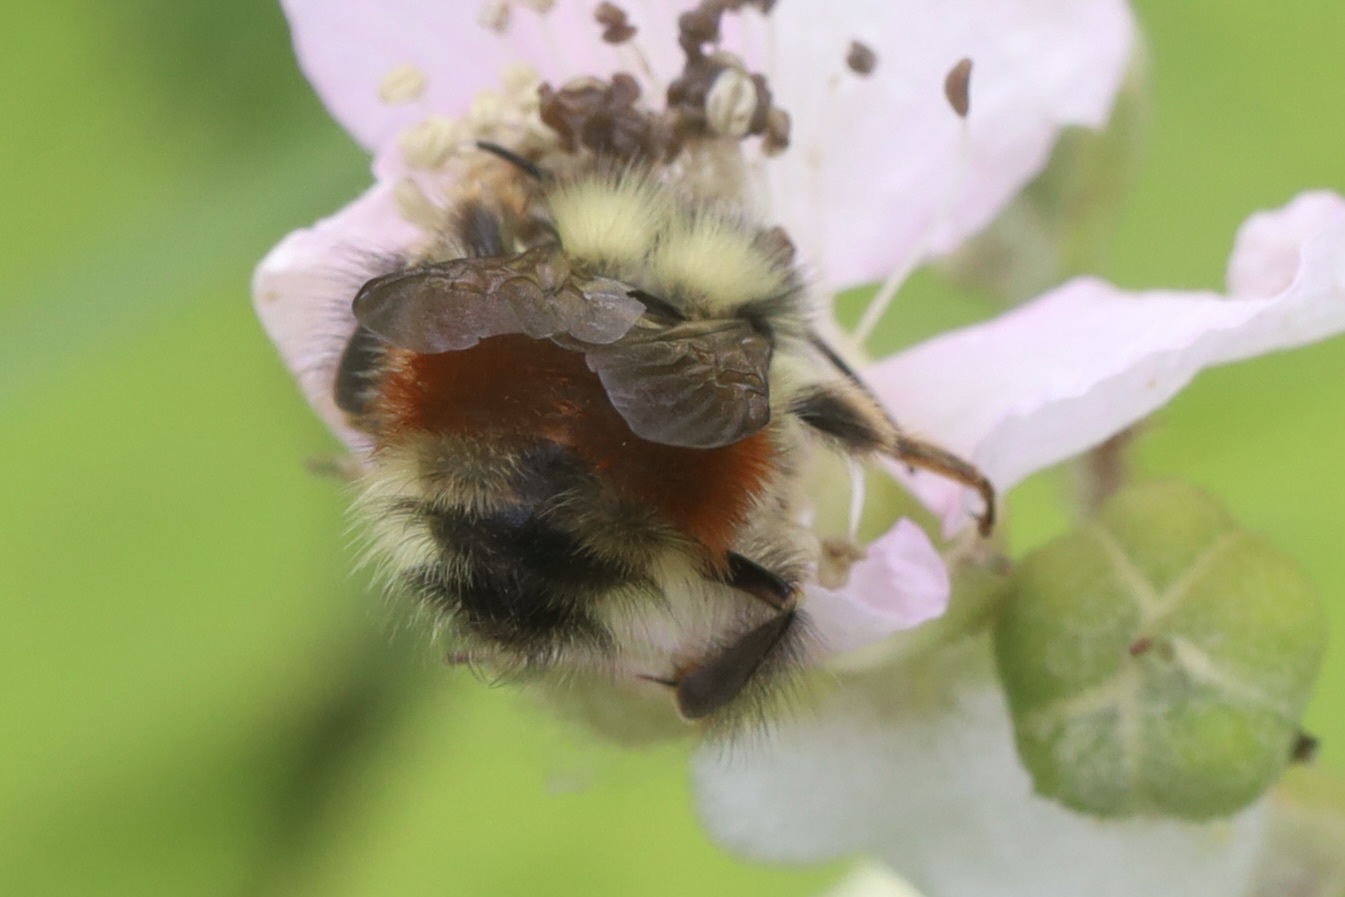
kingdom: Animalia
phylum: Arthropoda
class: Insecta
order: Hymenoptera
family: Apidae
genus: Bombus
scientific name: Bombus melanopygus
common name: Black tail bumble bee
